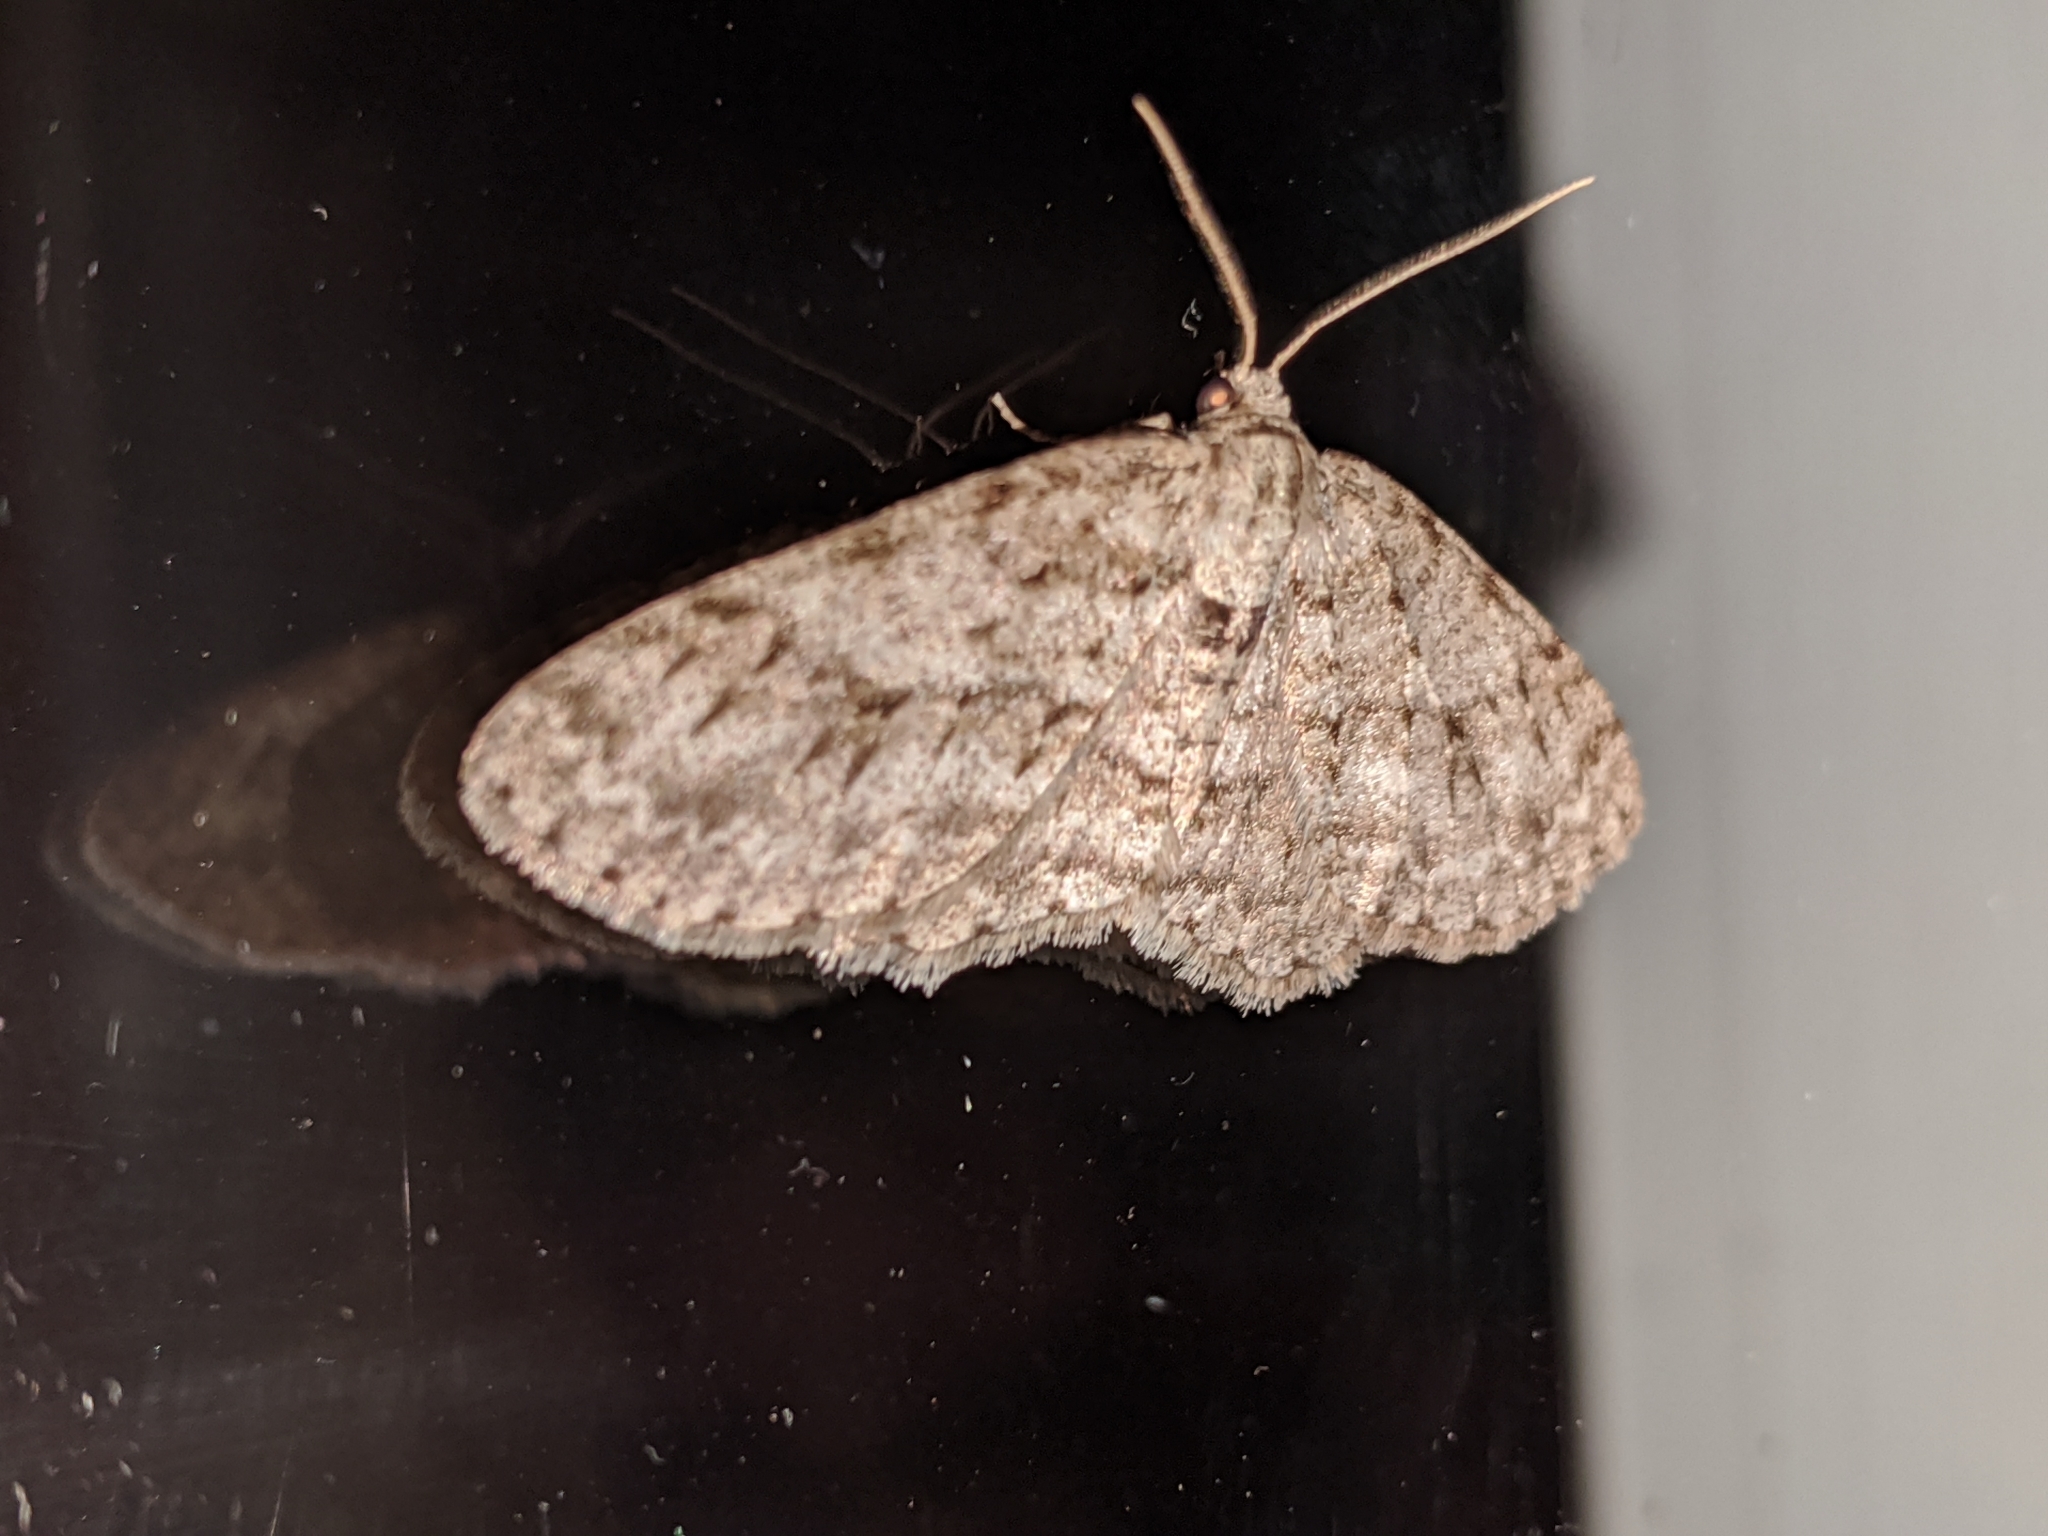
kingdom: Animalia
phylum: Arthropoda
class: Insecta
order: Lepidoptera
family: Geometridae
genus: Ectropis
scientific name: Ectropis crepuscularia
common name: Engrailed
